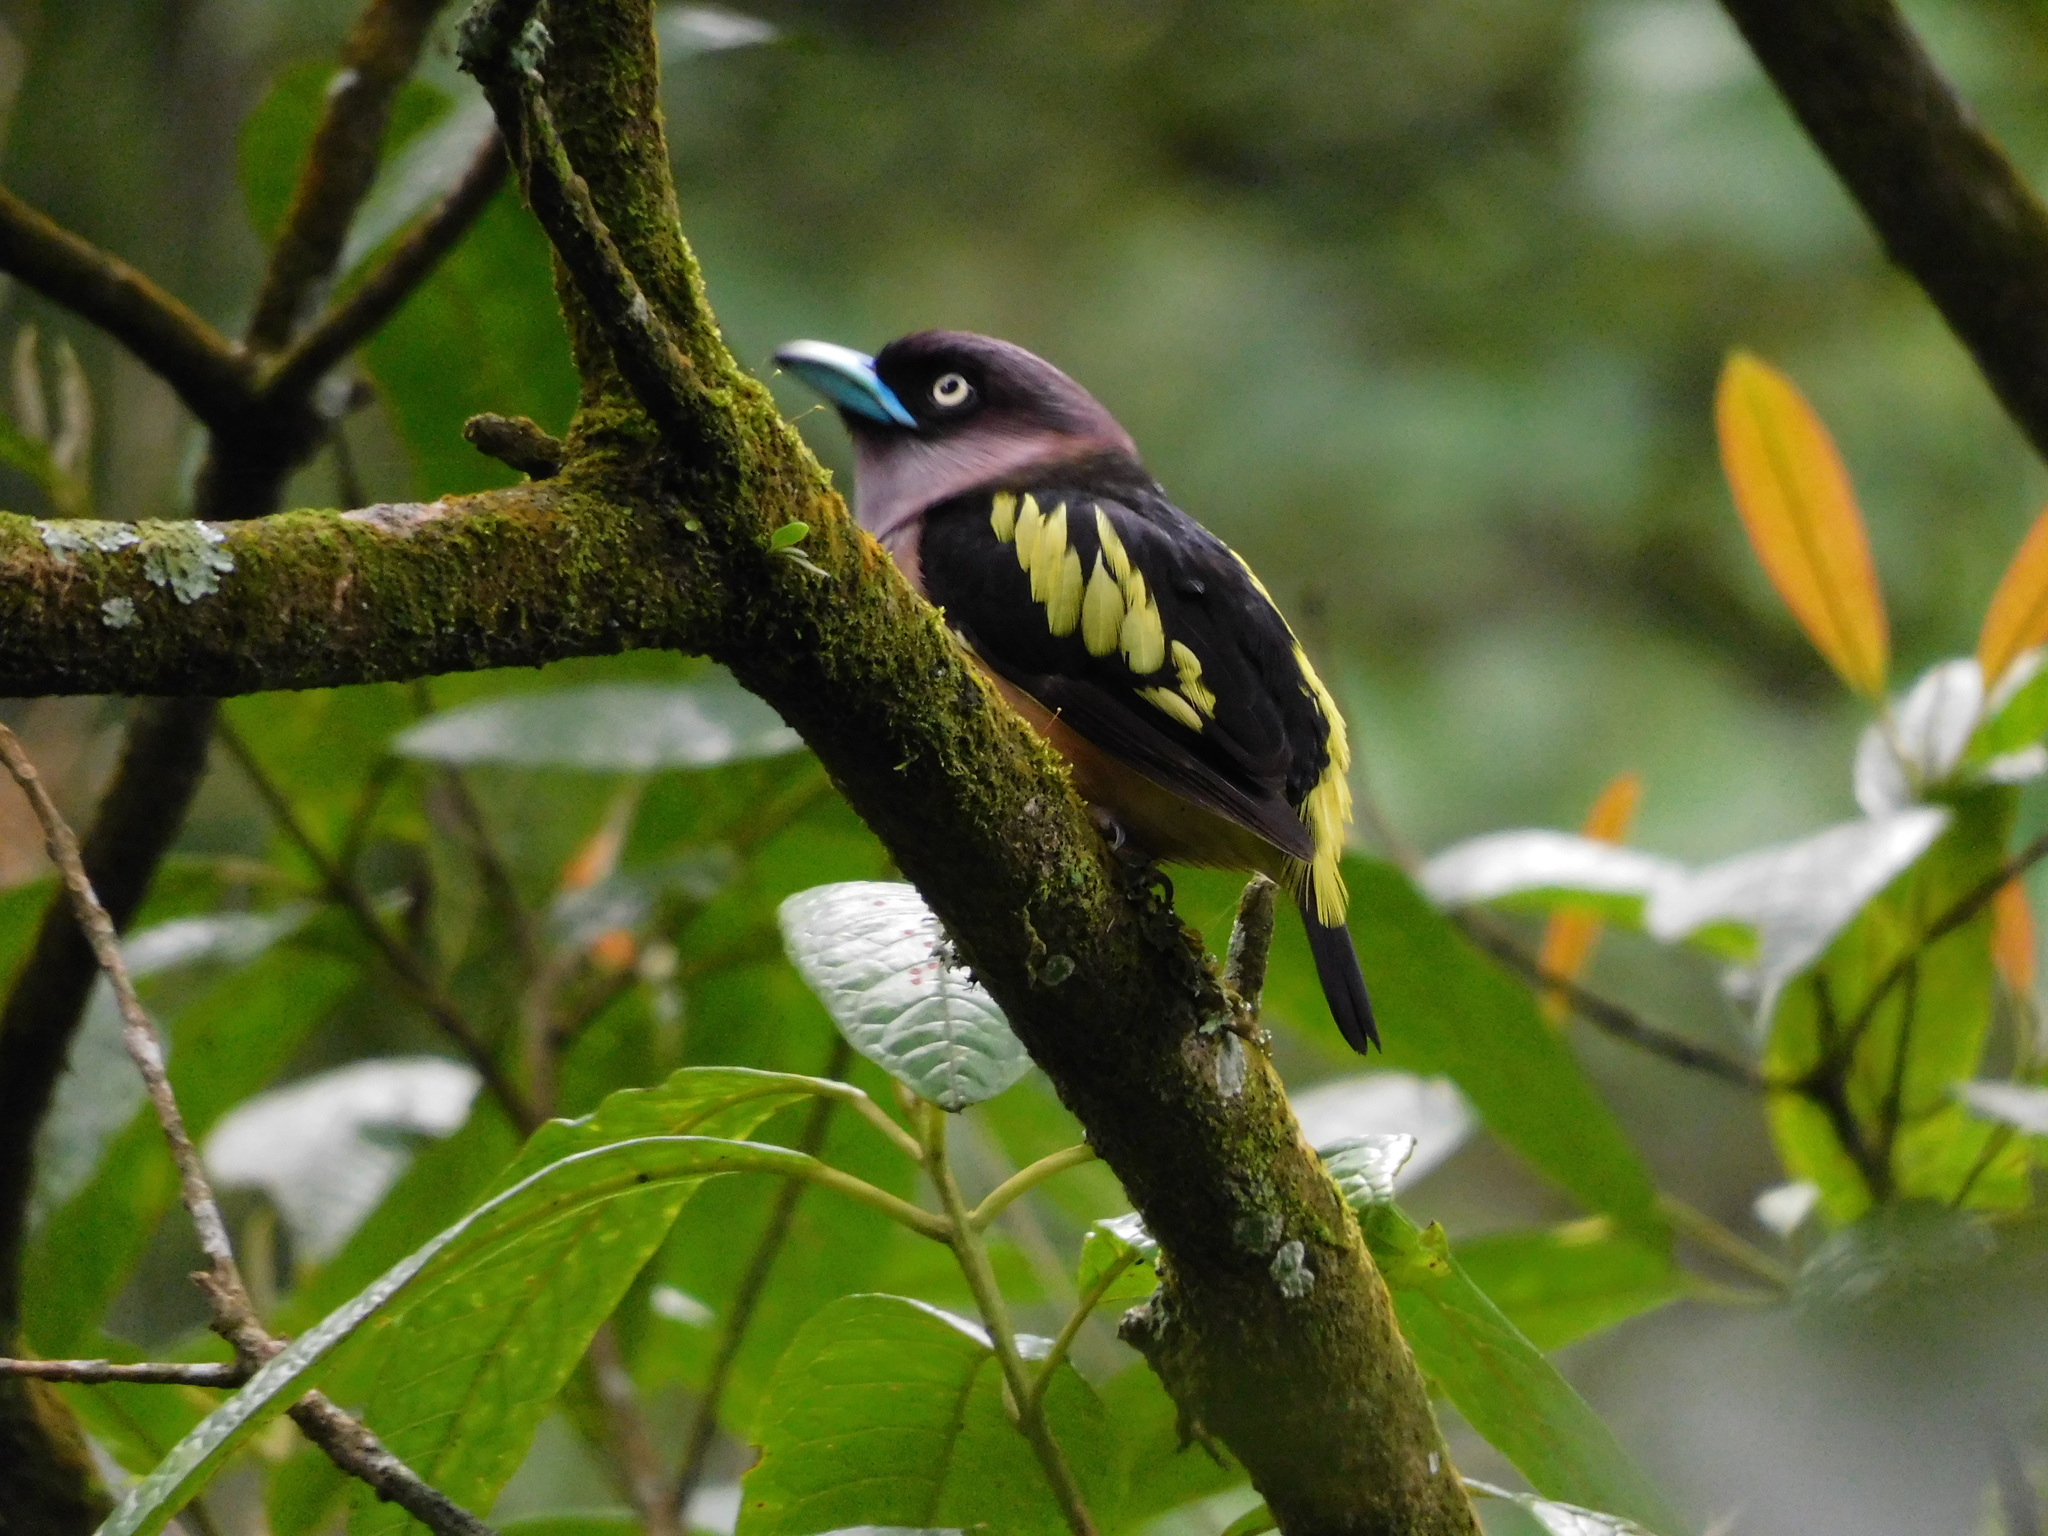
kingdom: Animalia
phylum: Chordata
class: Aves
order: Passeriformes
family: Eurylaimidae
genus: Eurylaimus
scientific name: Eurylaimus javanicus
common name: Banded broadbill
